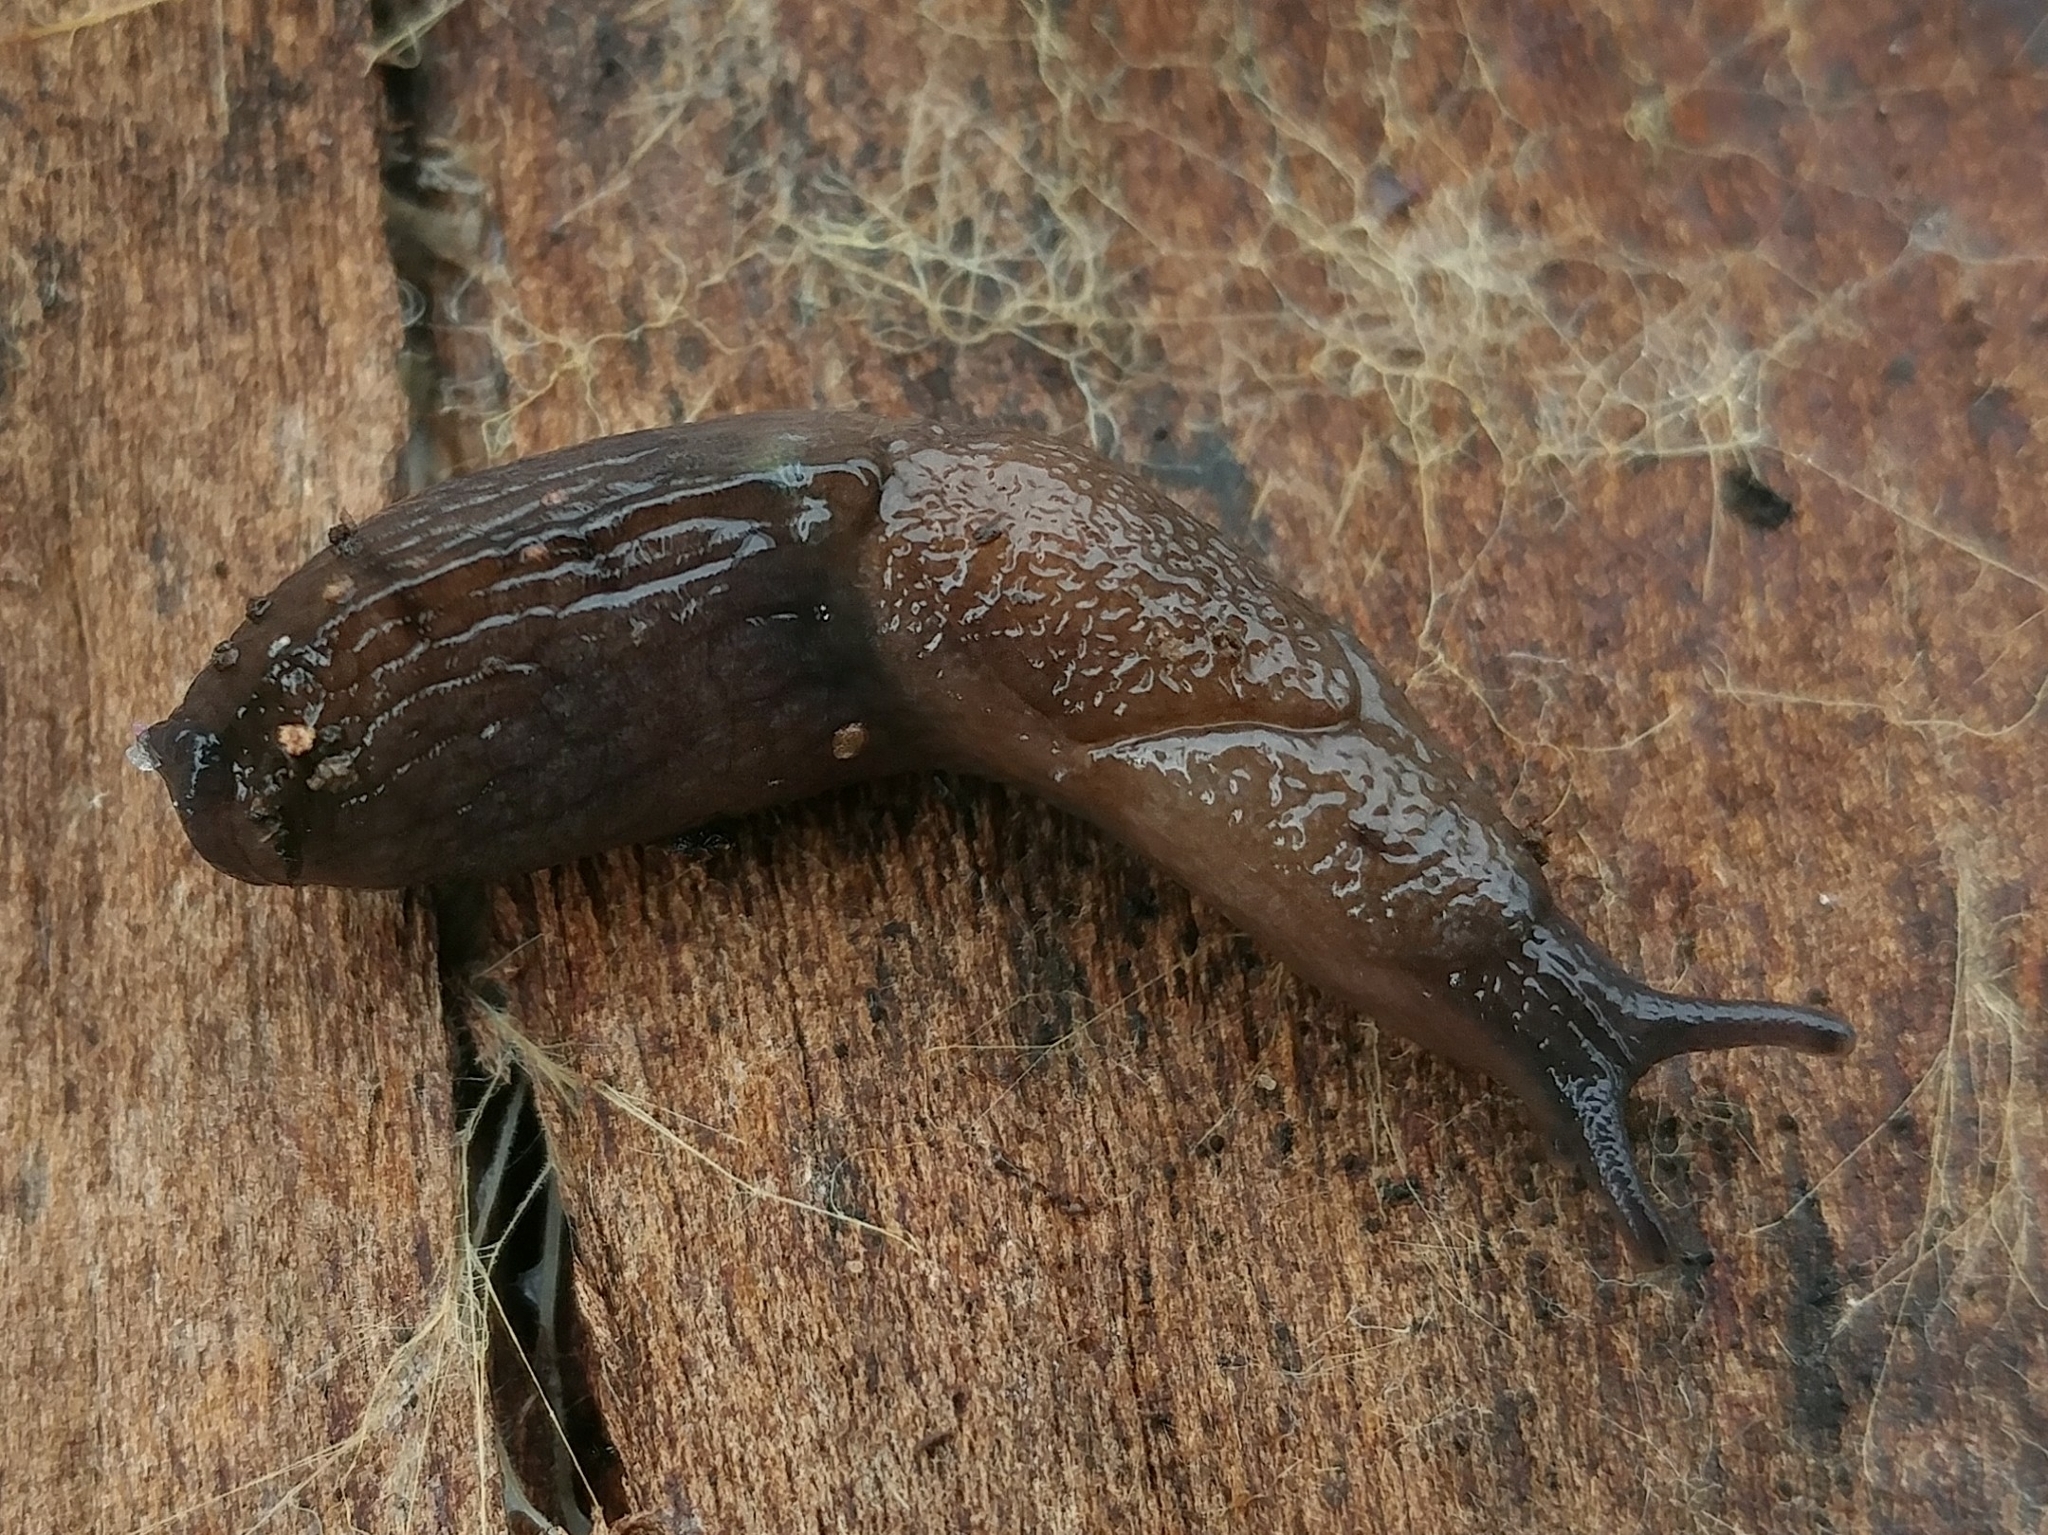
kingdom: Animalia
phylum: Mollusca
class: Gastropoda
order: Stylommatophora
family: Milacidae
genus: Milax
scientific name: Milax gagates
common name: Greenhouse slug
